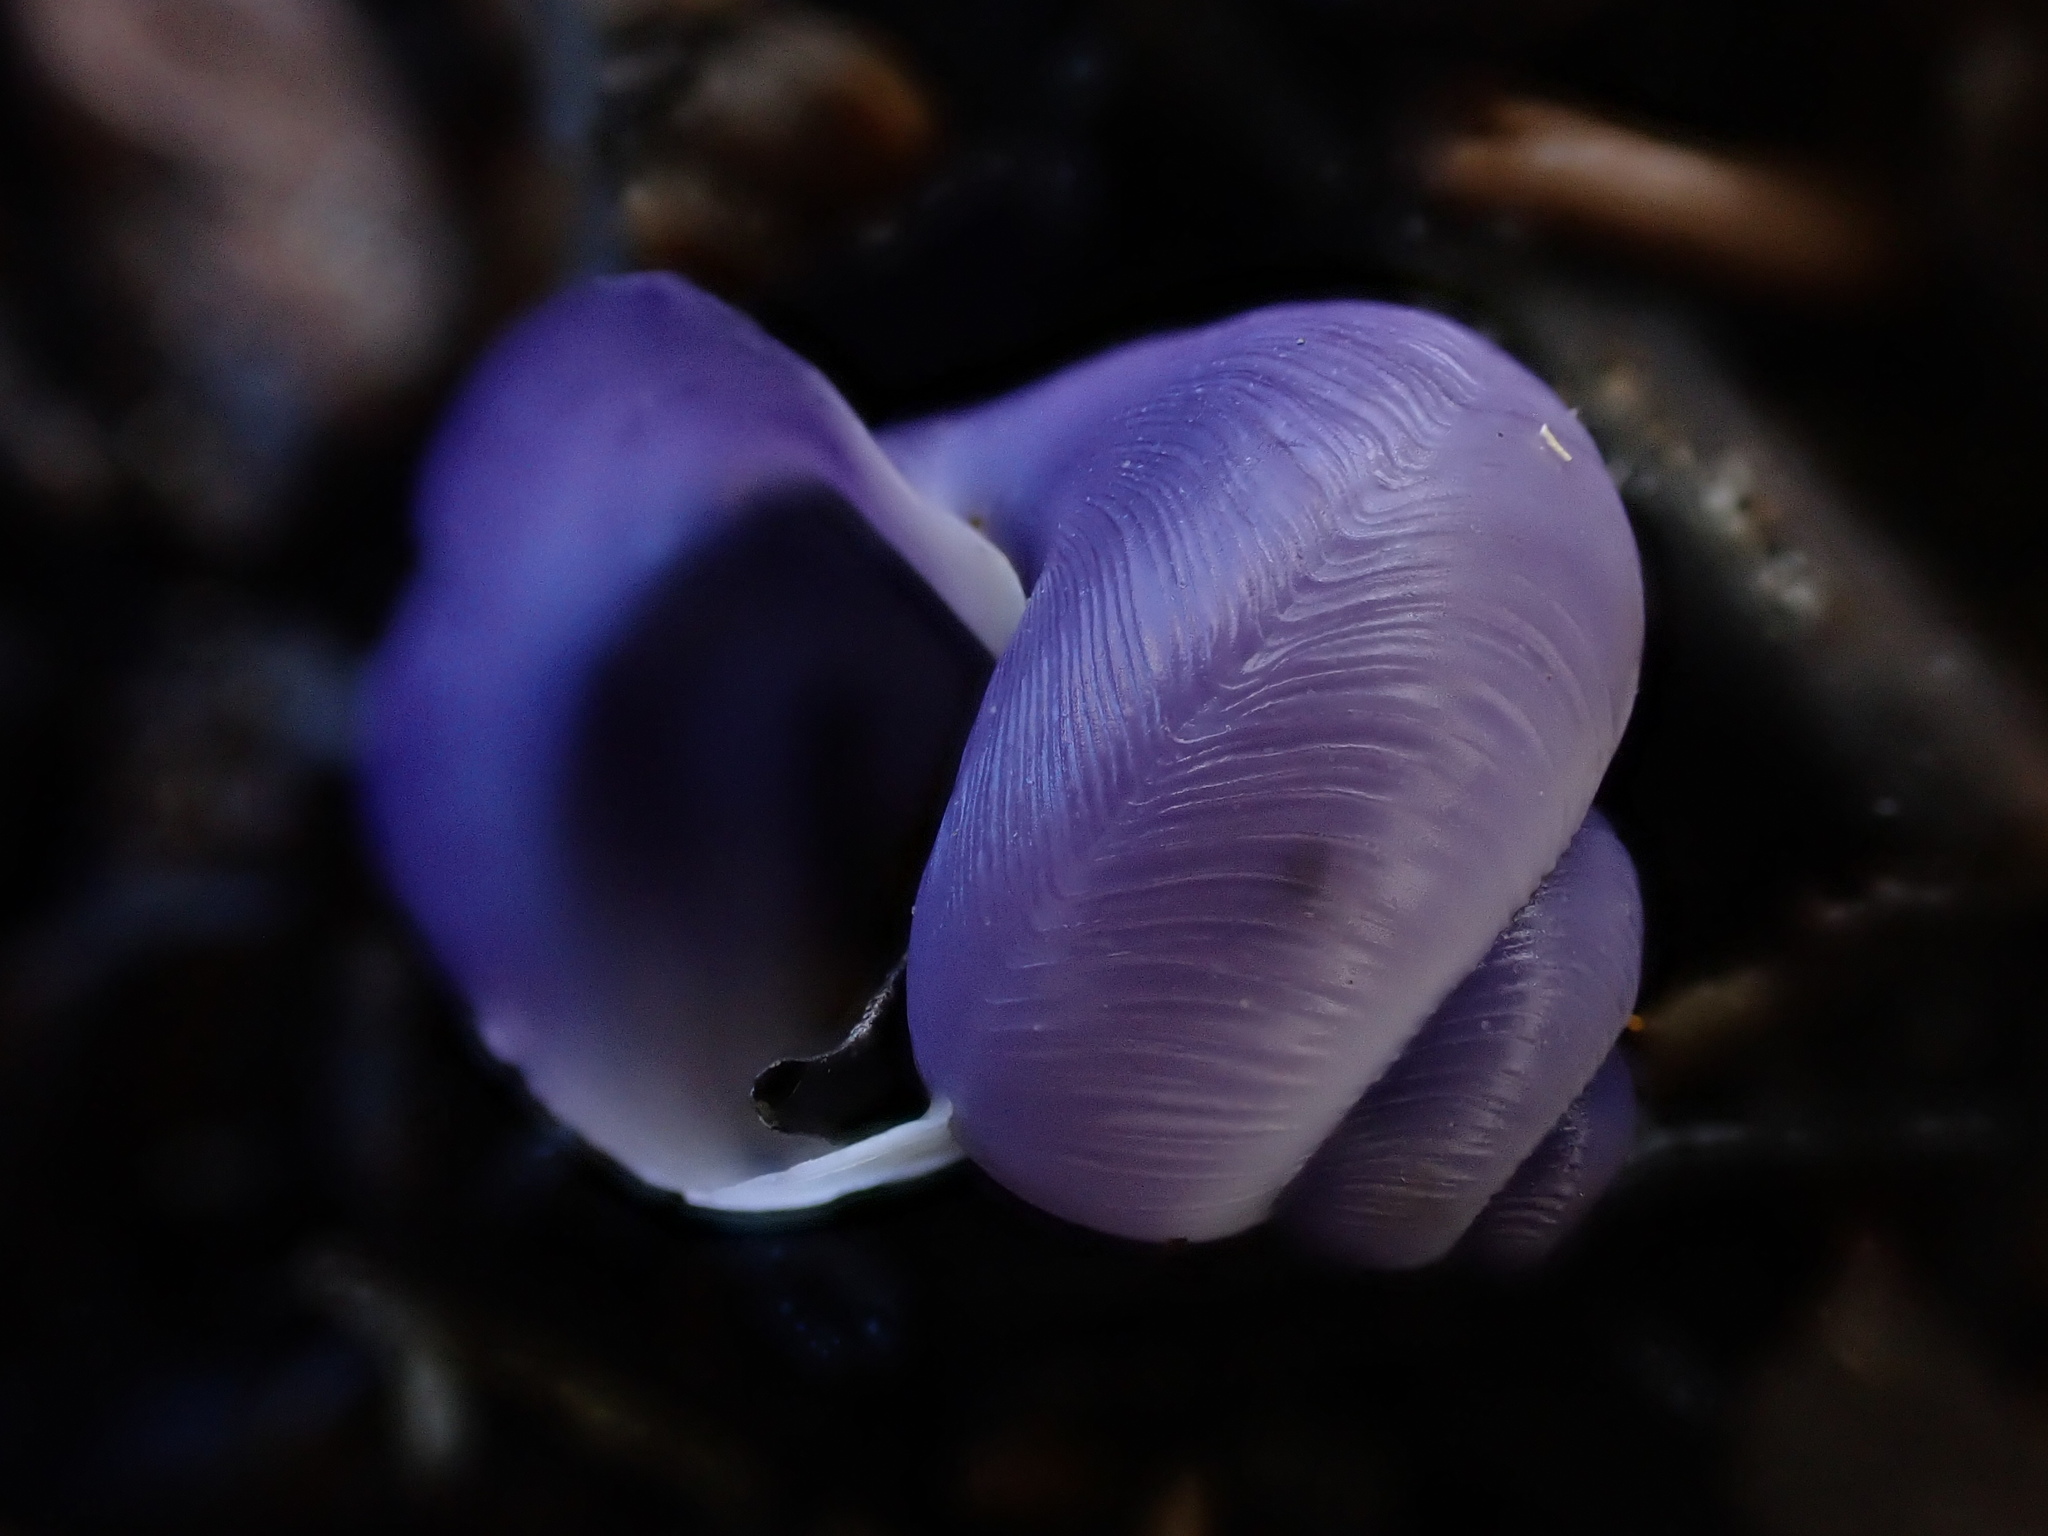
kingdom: Animalia
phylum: Mollusca
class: Gastropoda
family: Epitoniidae
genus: Janthina
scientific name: Janthina exigua
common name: Dwarf janthina
